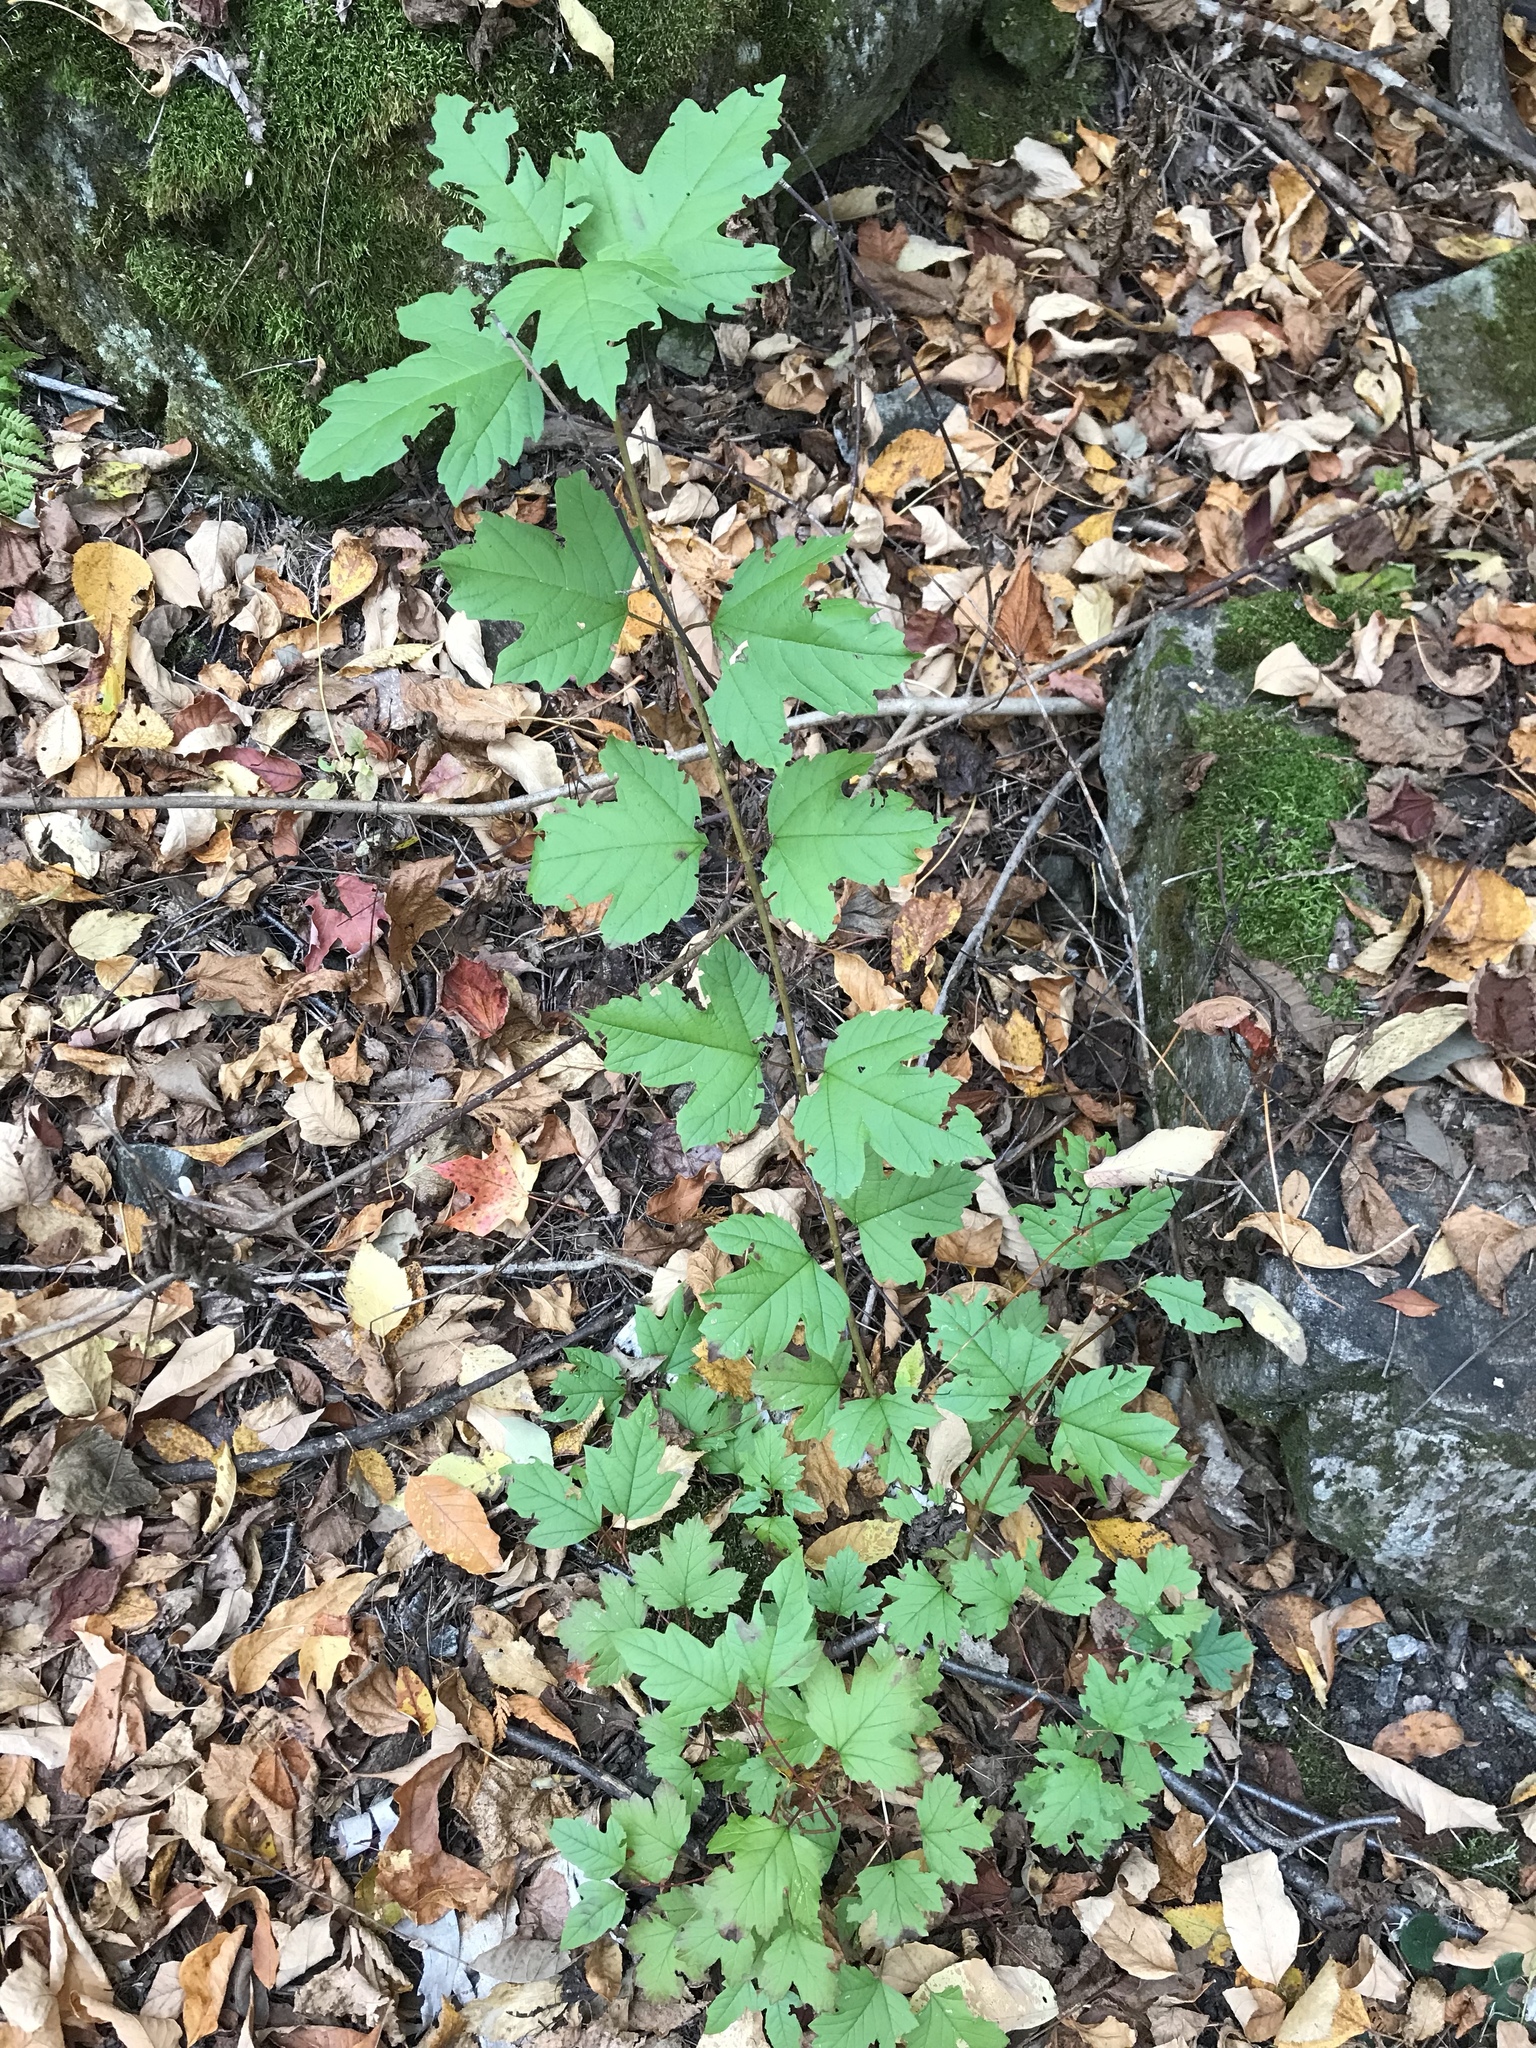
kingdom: Plantae
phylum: Tracheophyta
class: Magnoliopsida
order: Dipsacales
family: Viburnaceae
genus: Viburnum
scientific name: Viburnum opulus
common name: Guelder-rose
